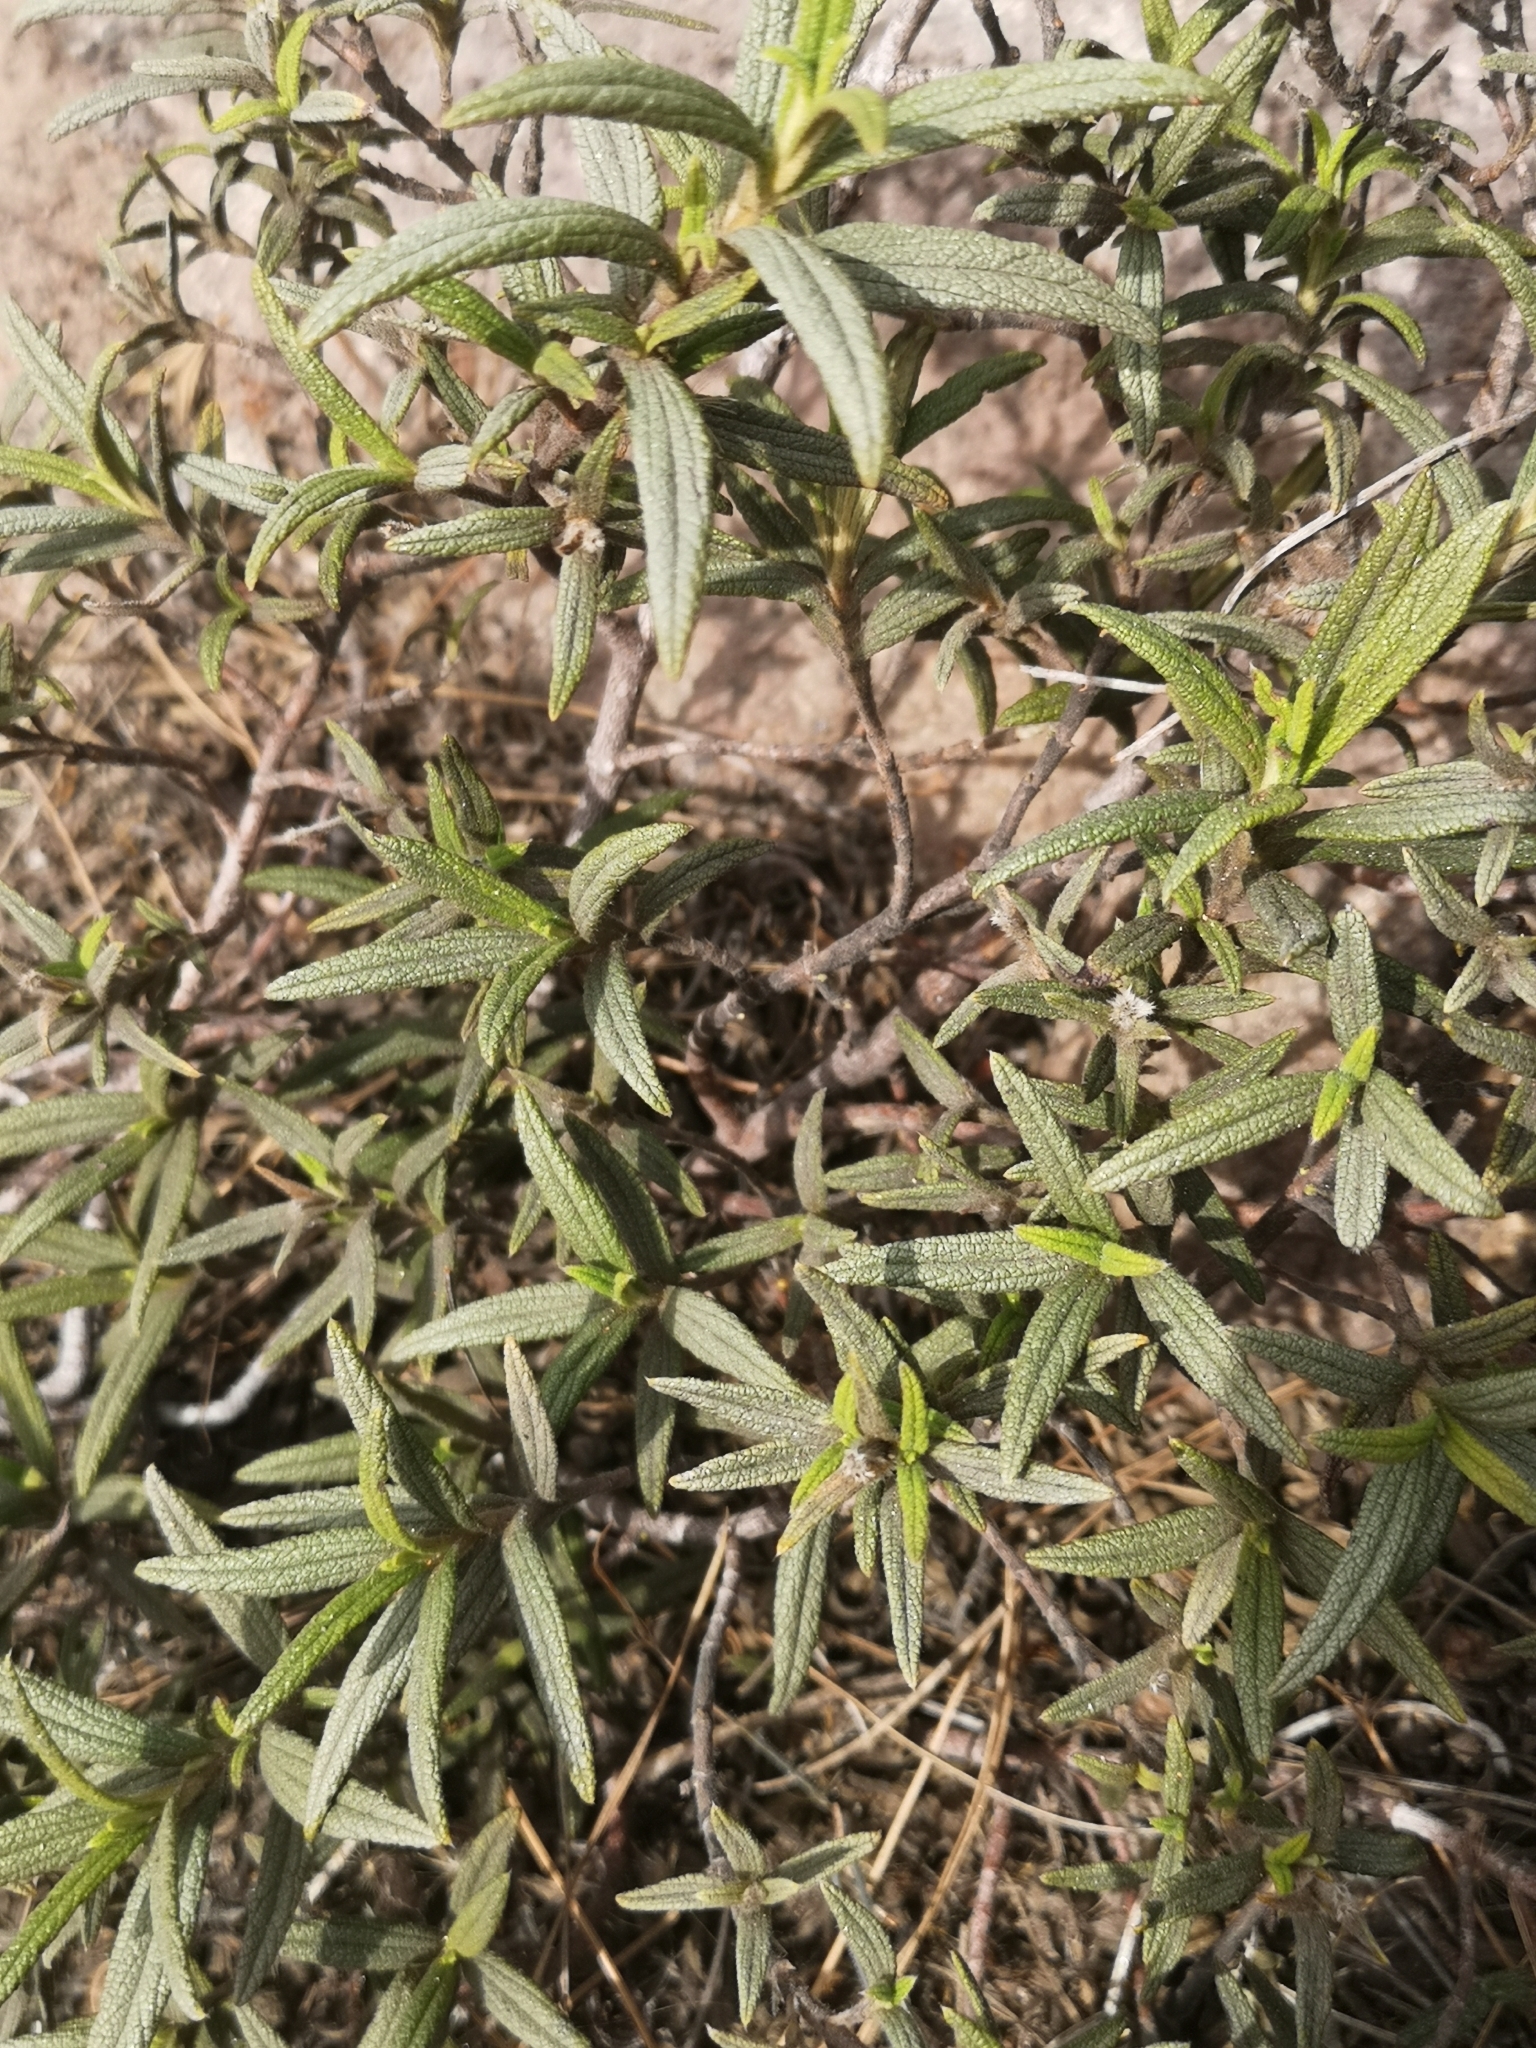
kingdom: Plantae
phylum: Tracheophyta
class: Magnoliopsida
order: Malvales
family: Cistaceae
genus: Cistus
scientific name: Cistus monspeliensis
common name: Montpelier cistus
